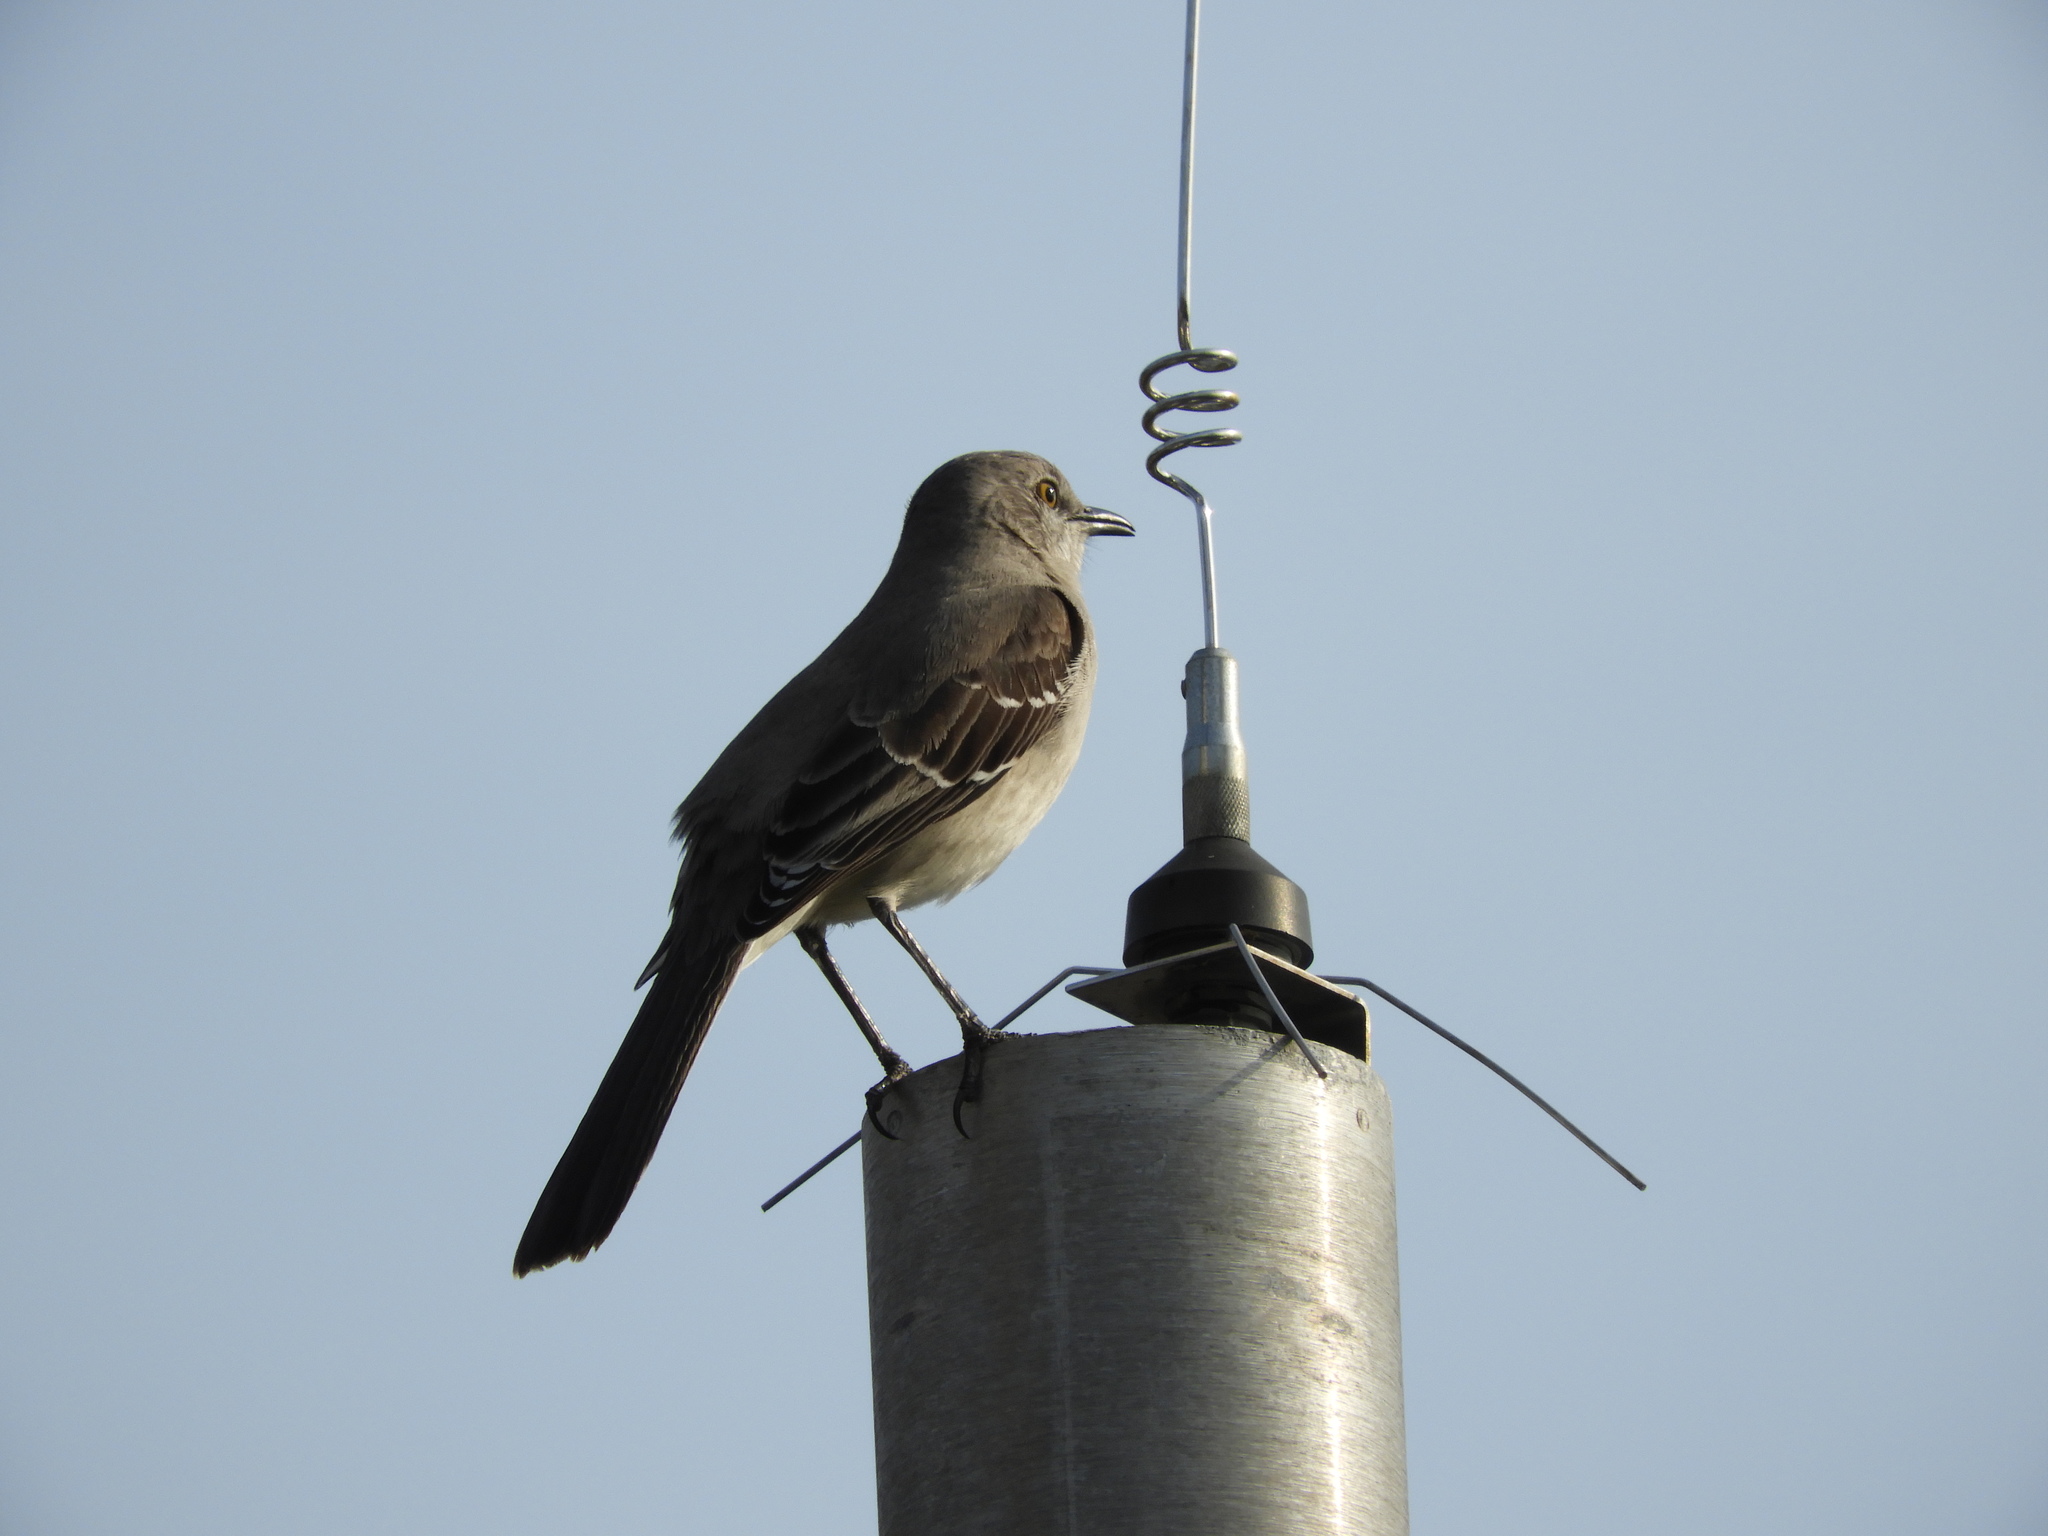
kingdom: Animalia
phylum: Chordata
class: Aves
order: Passeriformes
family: Mimidae
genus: Mimus
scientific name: Mimus polyglottos
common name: Northern mockingbird
